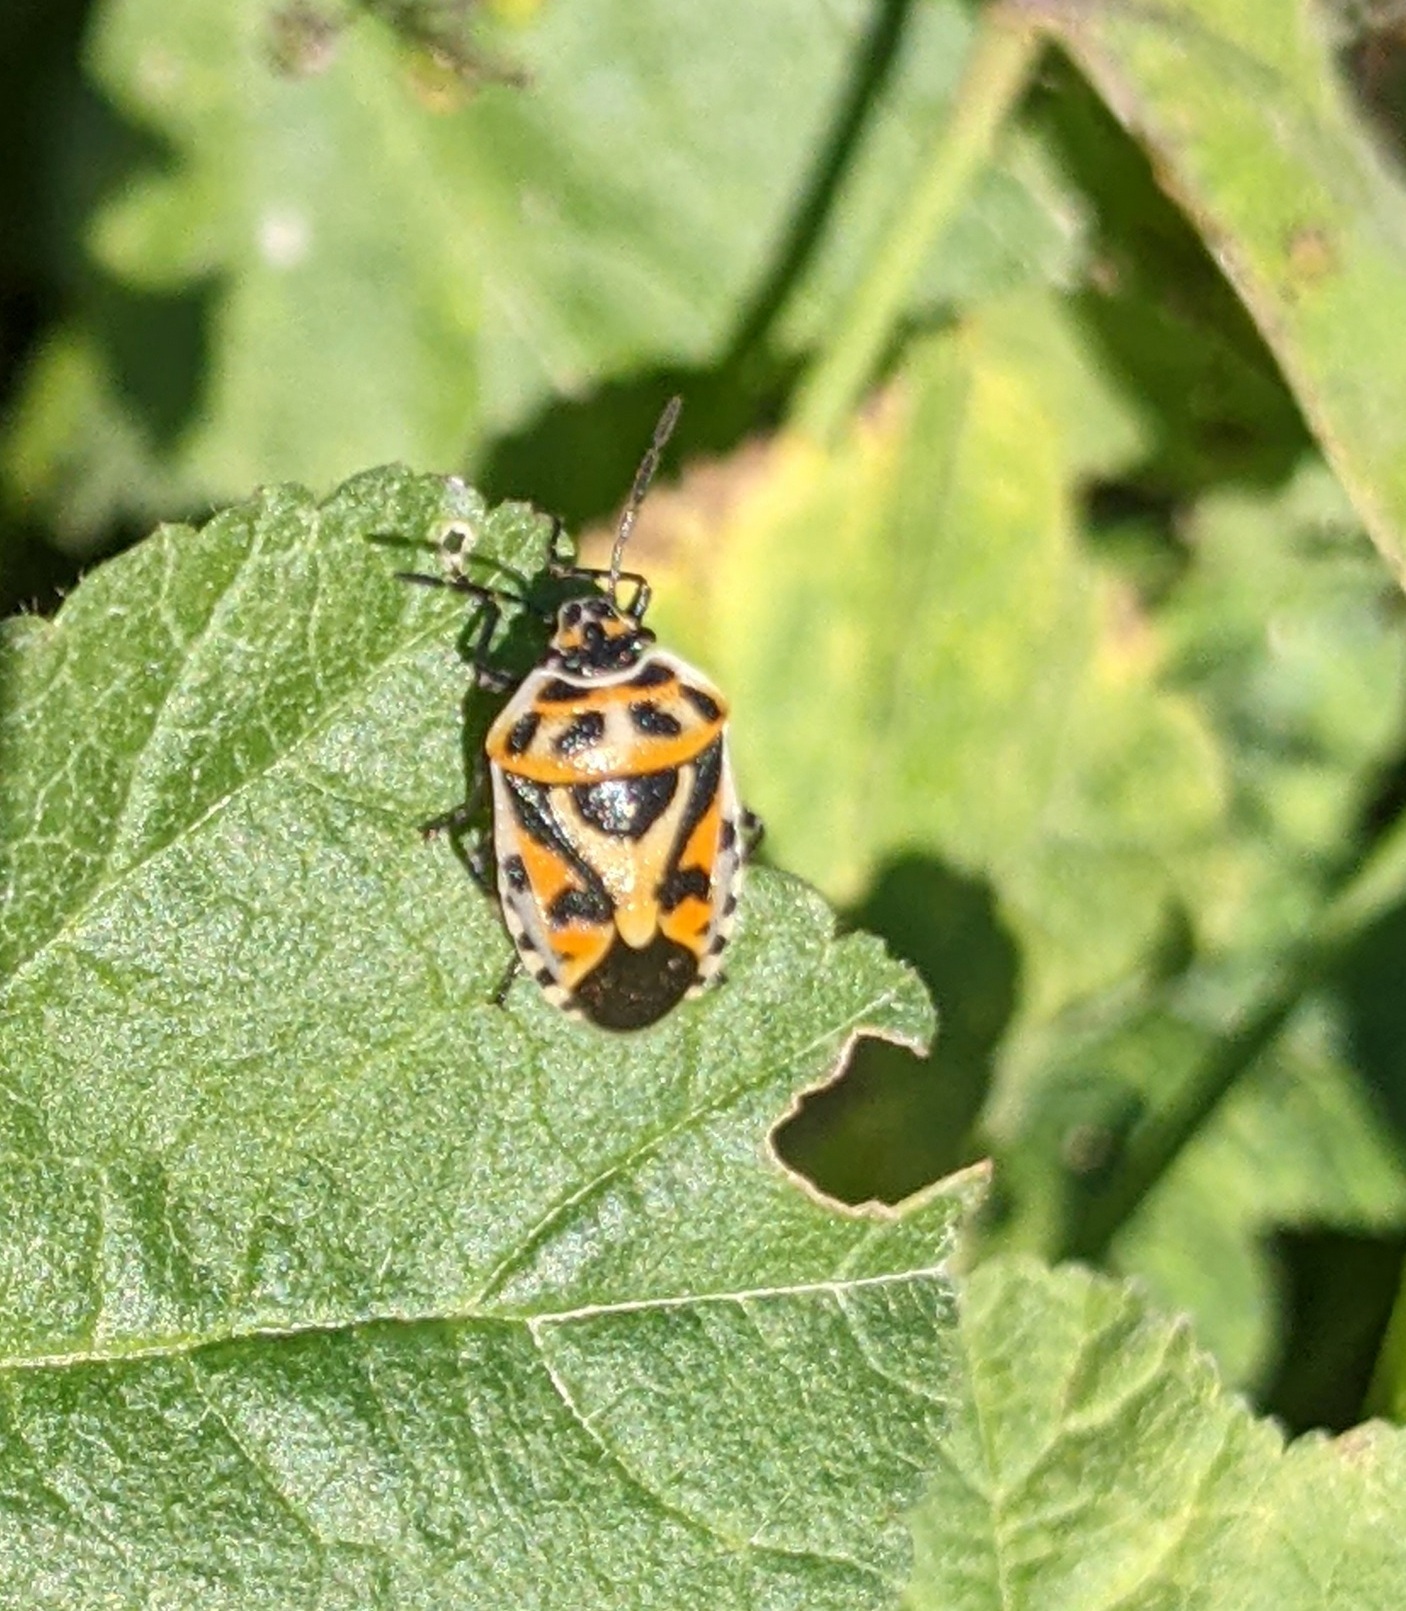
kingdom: Animalia
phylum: Arthropoda
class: Insecta
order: Hemiptera
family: Pentatomidae
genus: Eurydema
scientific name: Eurydema ornata
